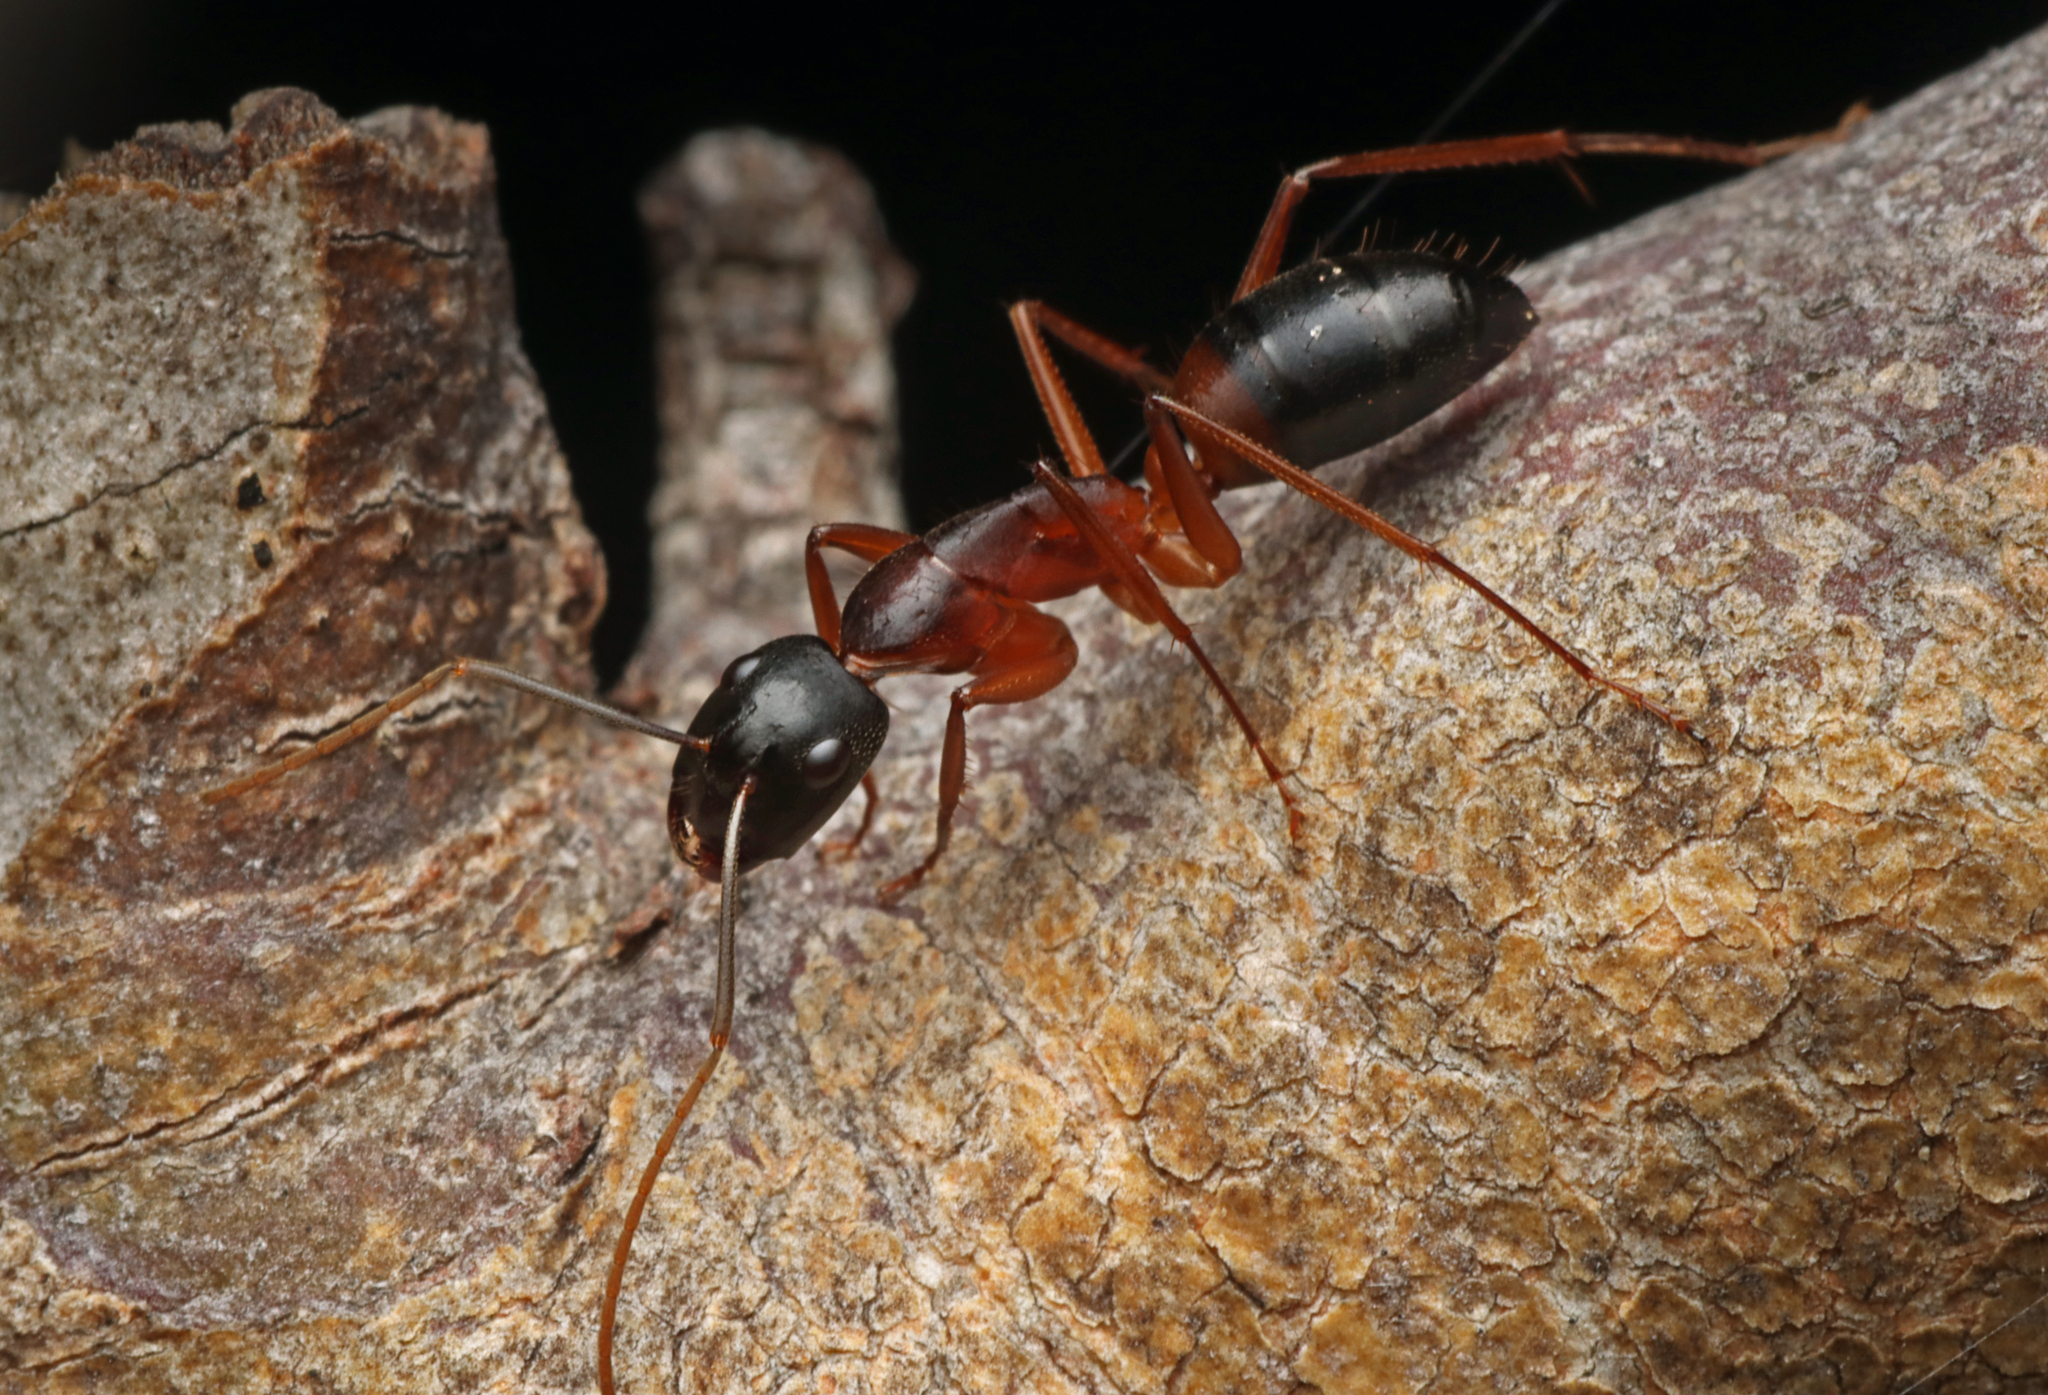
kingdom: Animalia
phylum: Arthropoda
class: Insecta
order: Hymenoptera
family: Formicidae
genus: Camponotus
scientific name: Camponotus consobrinus
